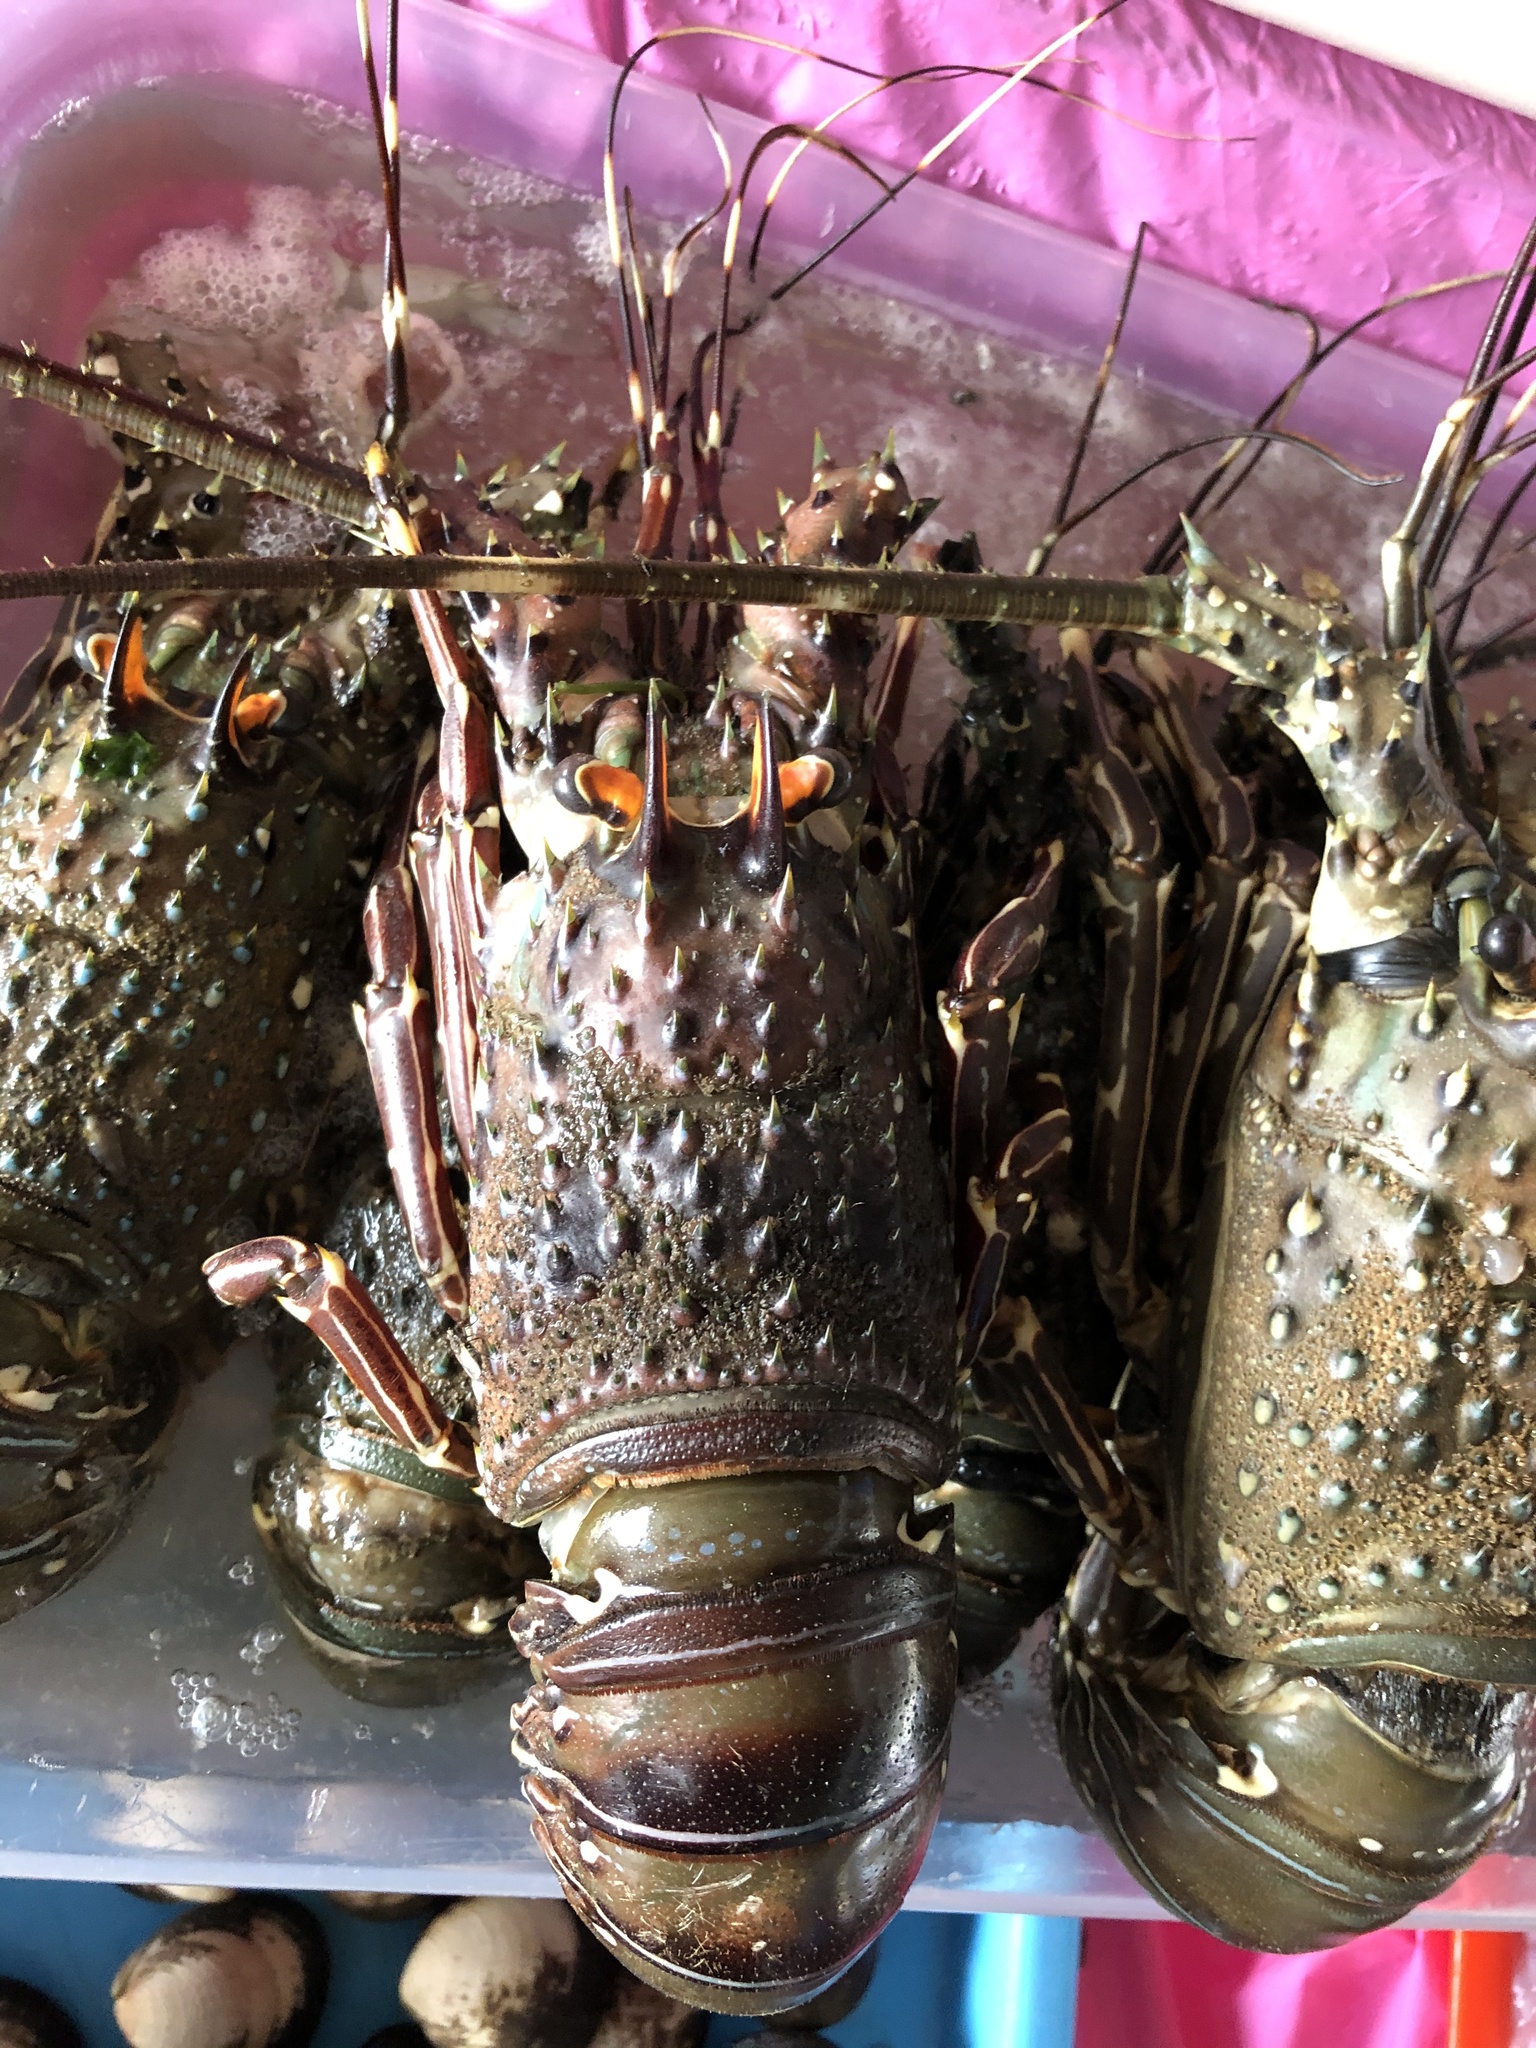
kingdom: Animalia
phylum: Arthropoda
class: Malacostraca
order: Decapoda
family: Palinuridae
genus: Panulirus
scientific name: Panulirus gracilis
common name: Green spiny lobster
